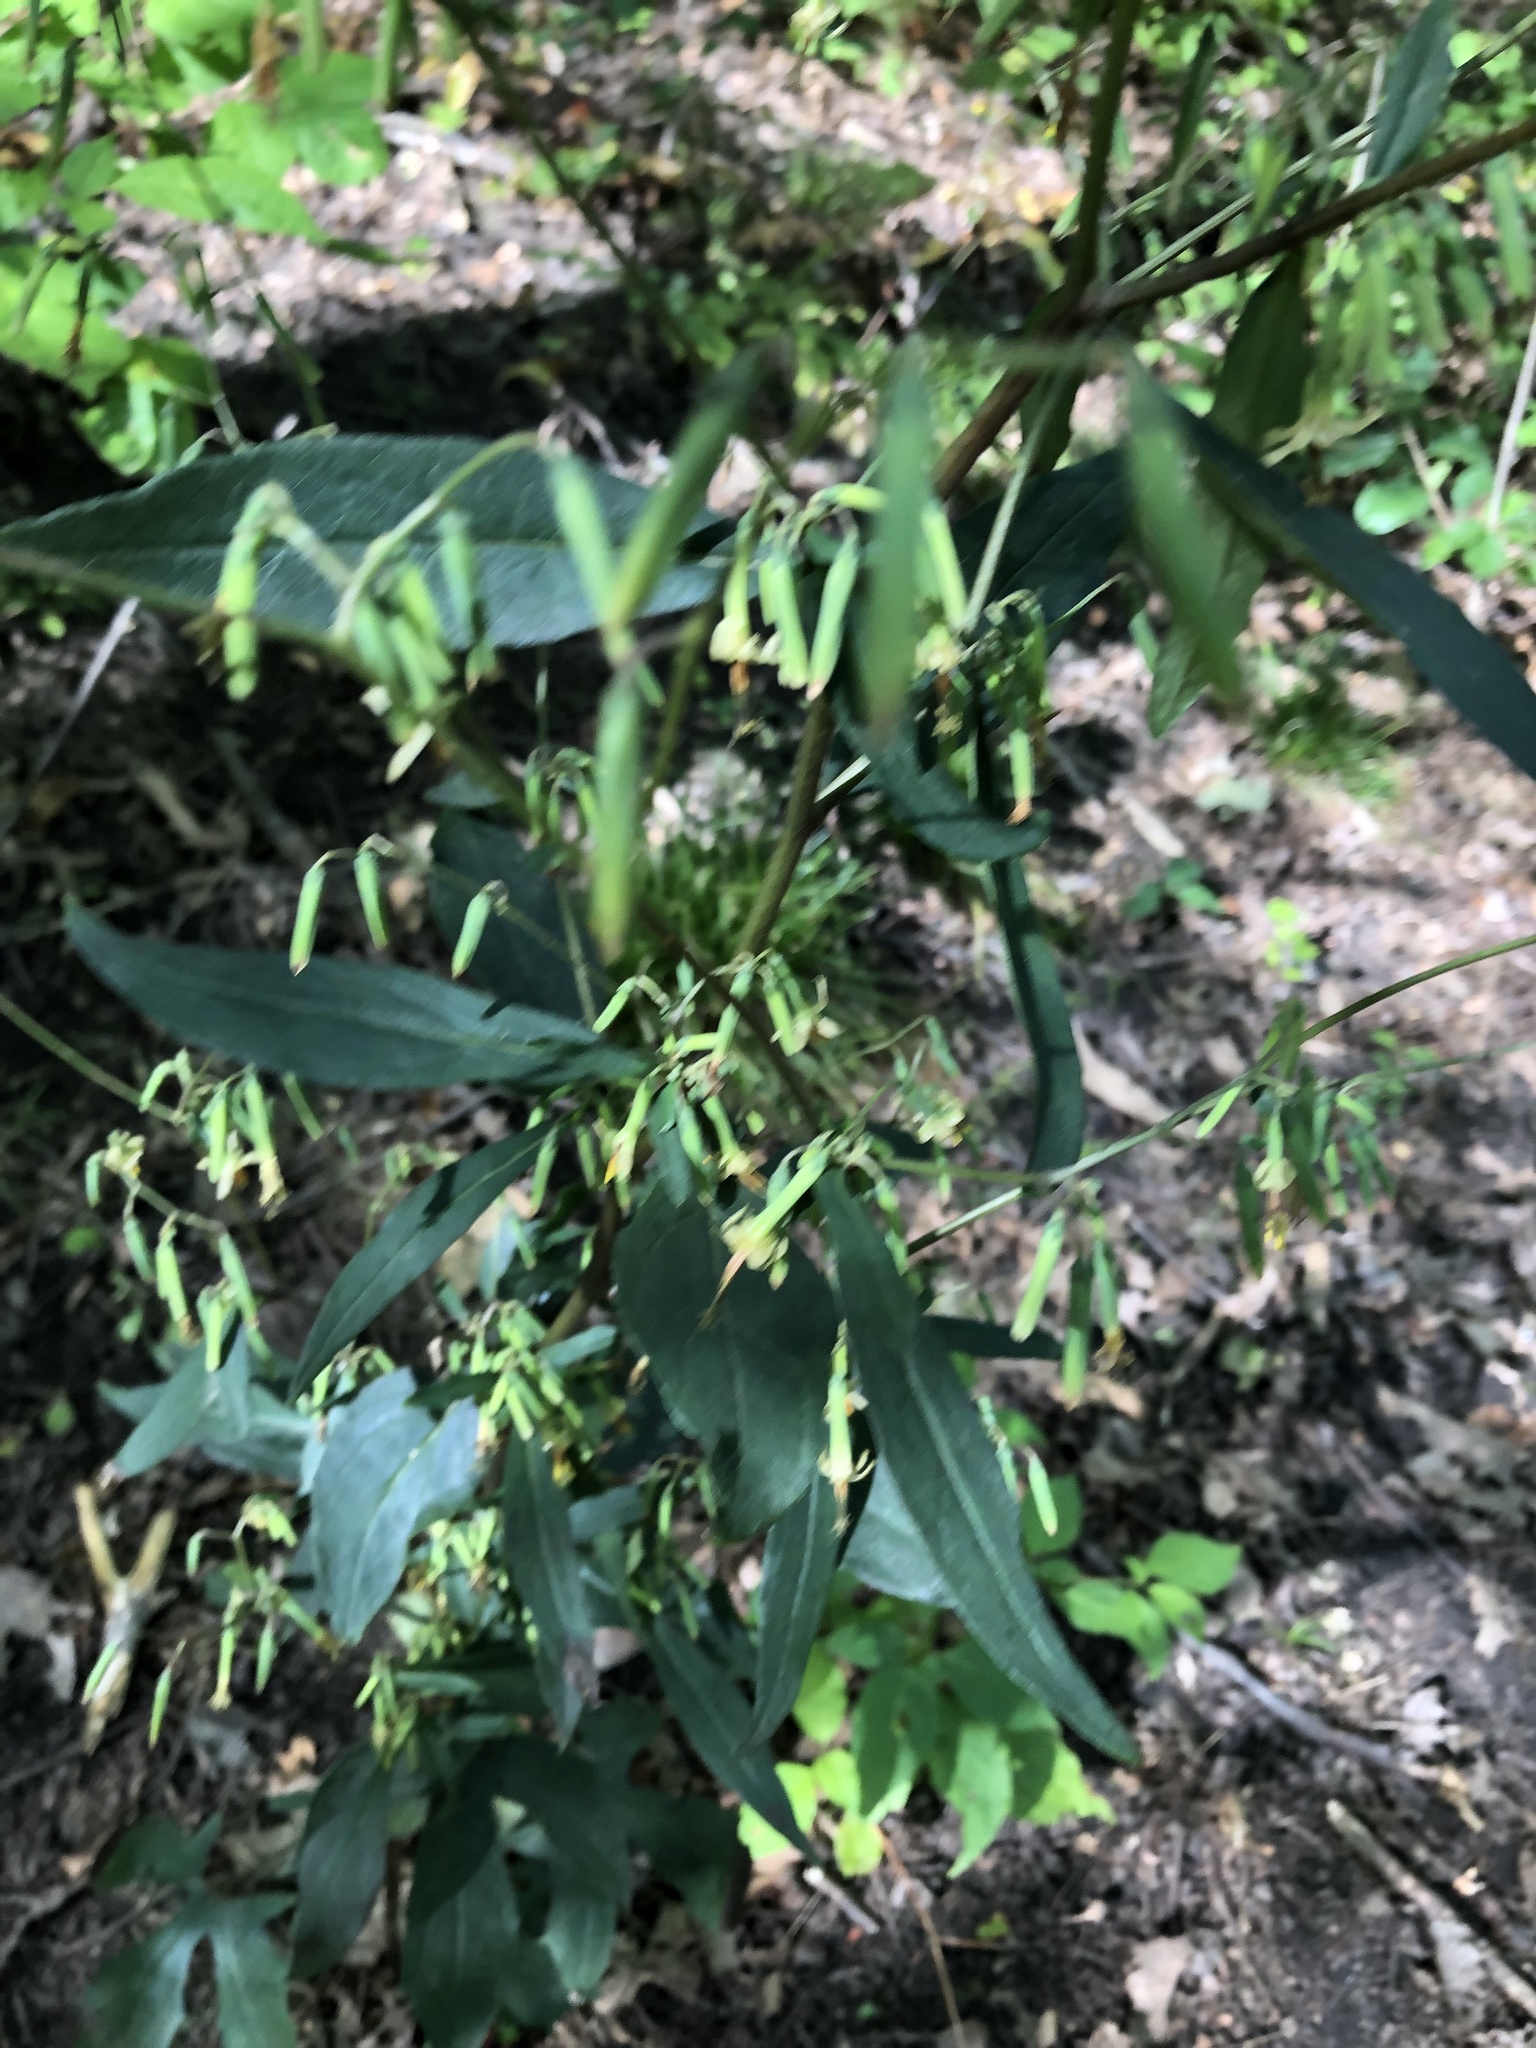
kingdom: Plantae
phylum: Tracheophyta
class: Magnoliopsida
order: Asterales
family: Asteraceae
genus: Nabalus
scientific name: Nabalus altissima
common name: Tall rattlesnakeroot
